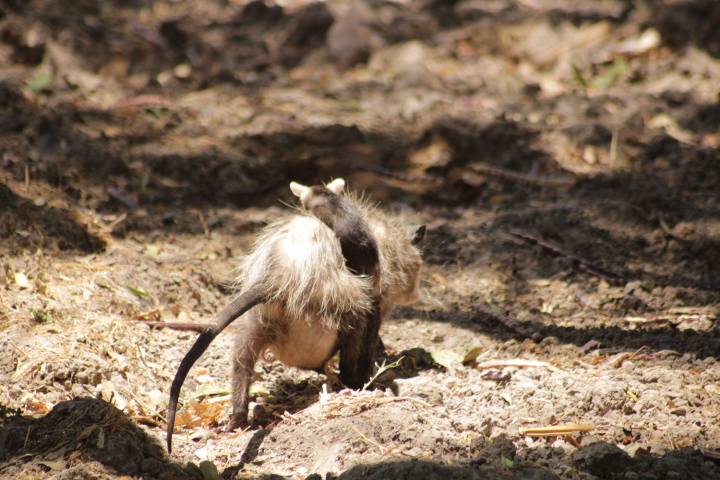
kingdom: Animalia
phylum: Chordata
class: Mammalia
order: Didelphimorphia
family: Didelphidae
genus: Didelphis
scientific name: Didelphis virginiana
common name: Virginia opossum
